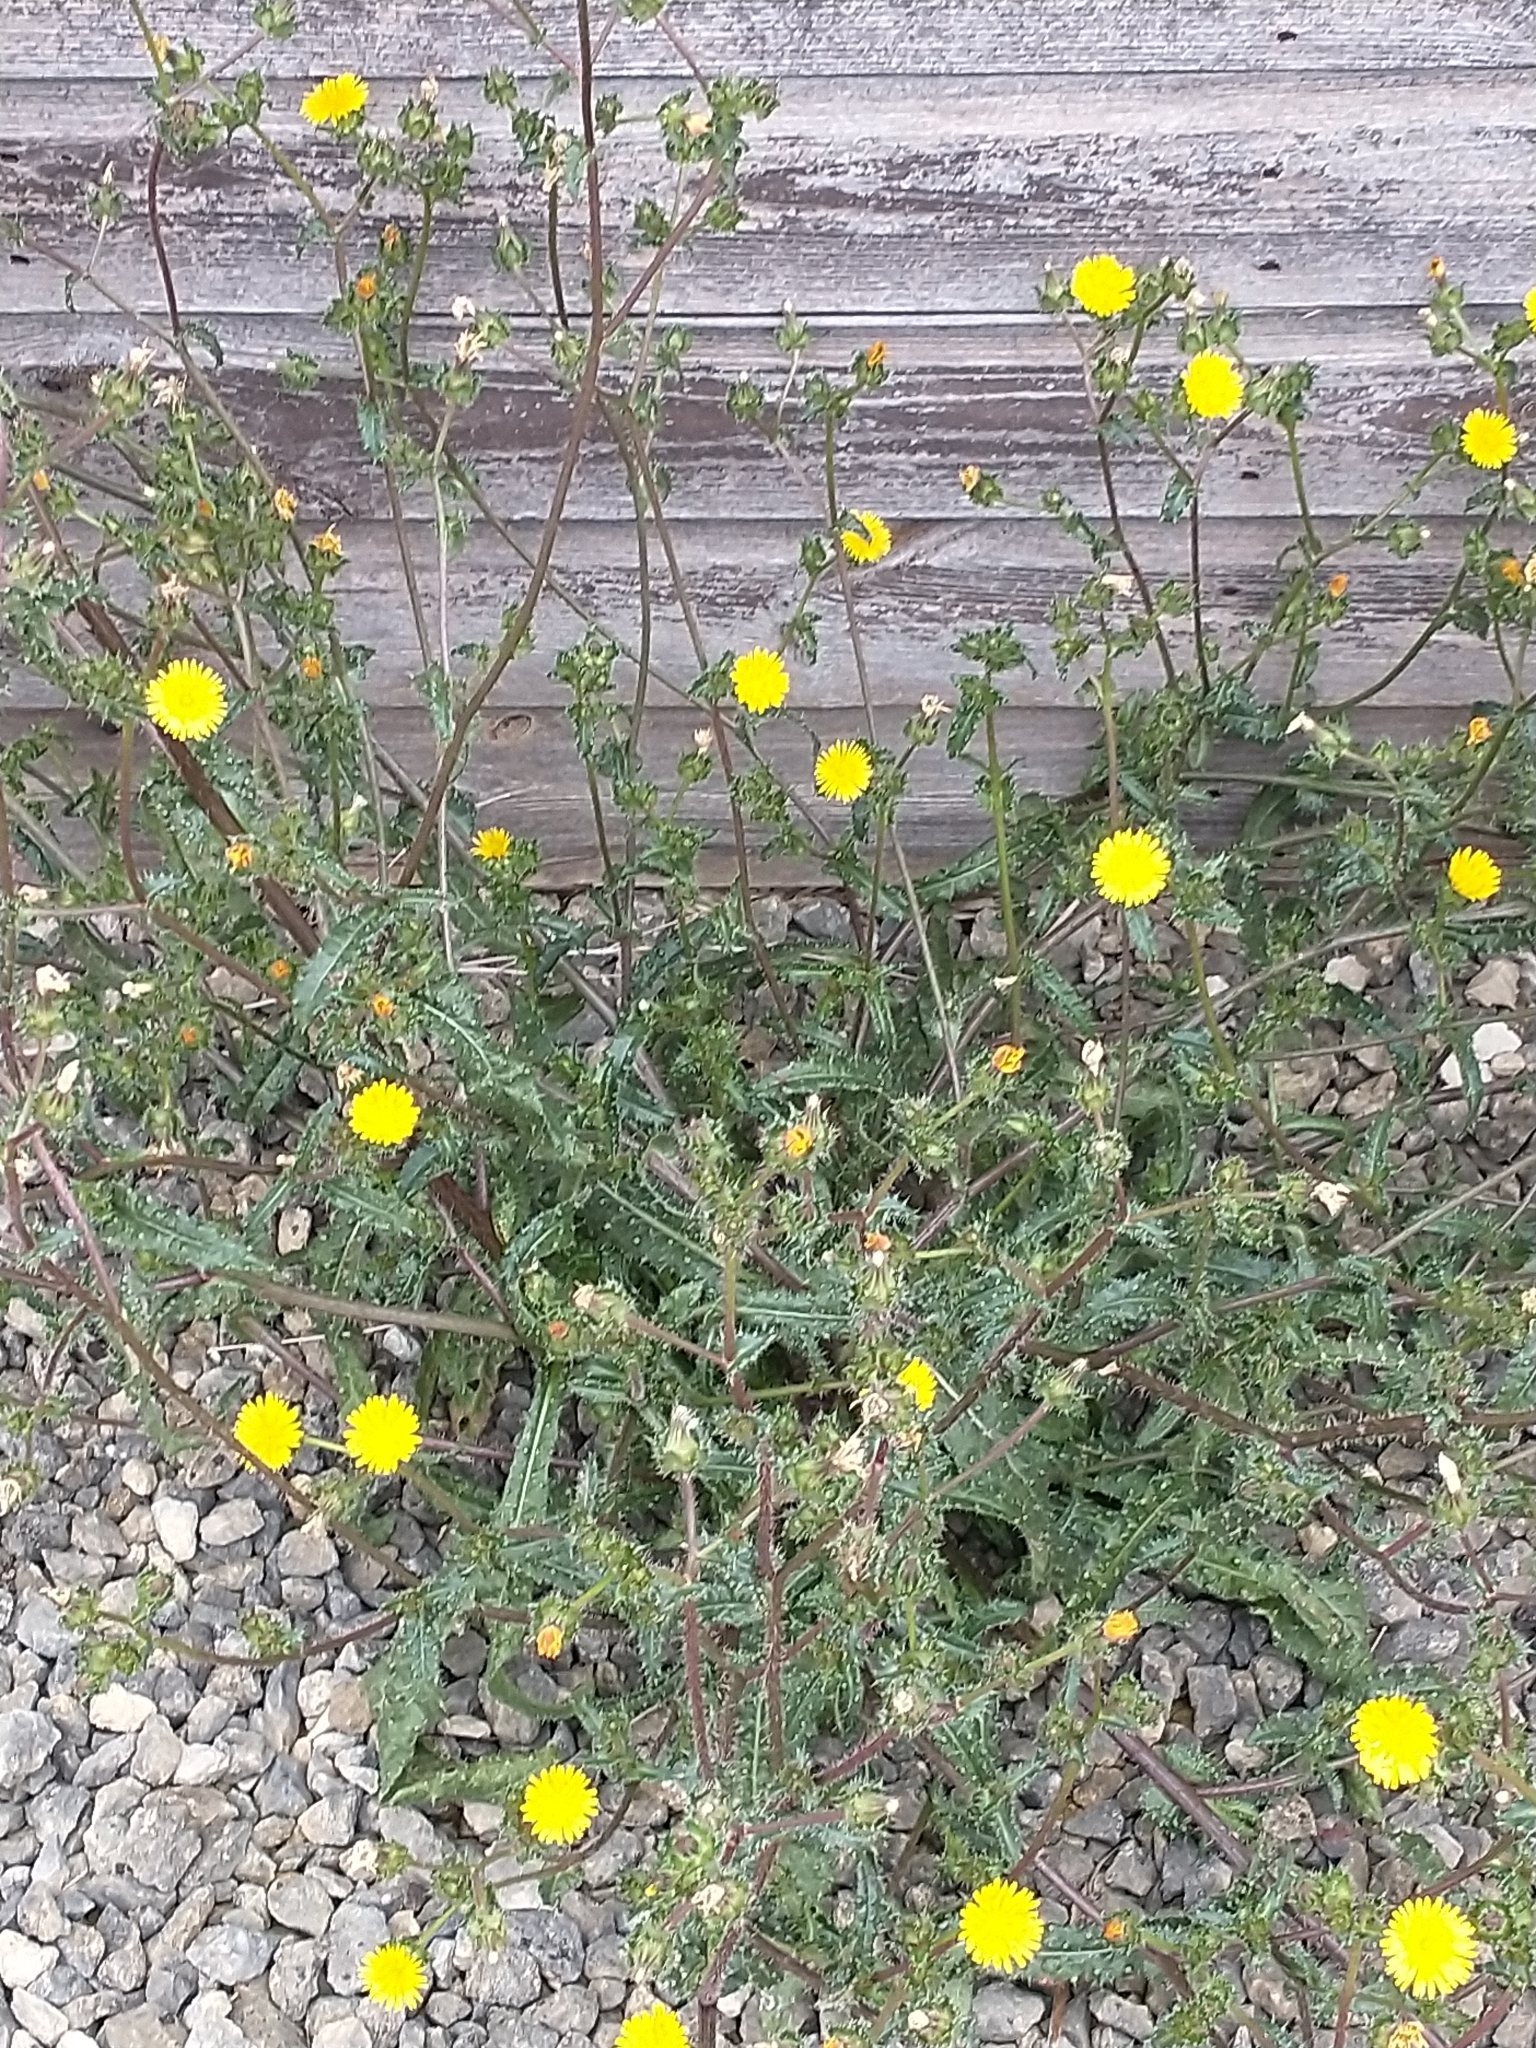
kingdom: Plantae
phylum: Tracheophyta
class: Magnoliopsida
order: Asterales
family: Asteraceae
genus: Helminthotheca
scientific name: Helminthotheca echioides
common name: Ox-tongue
